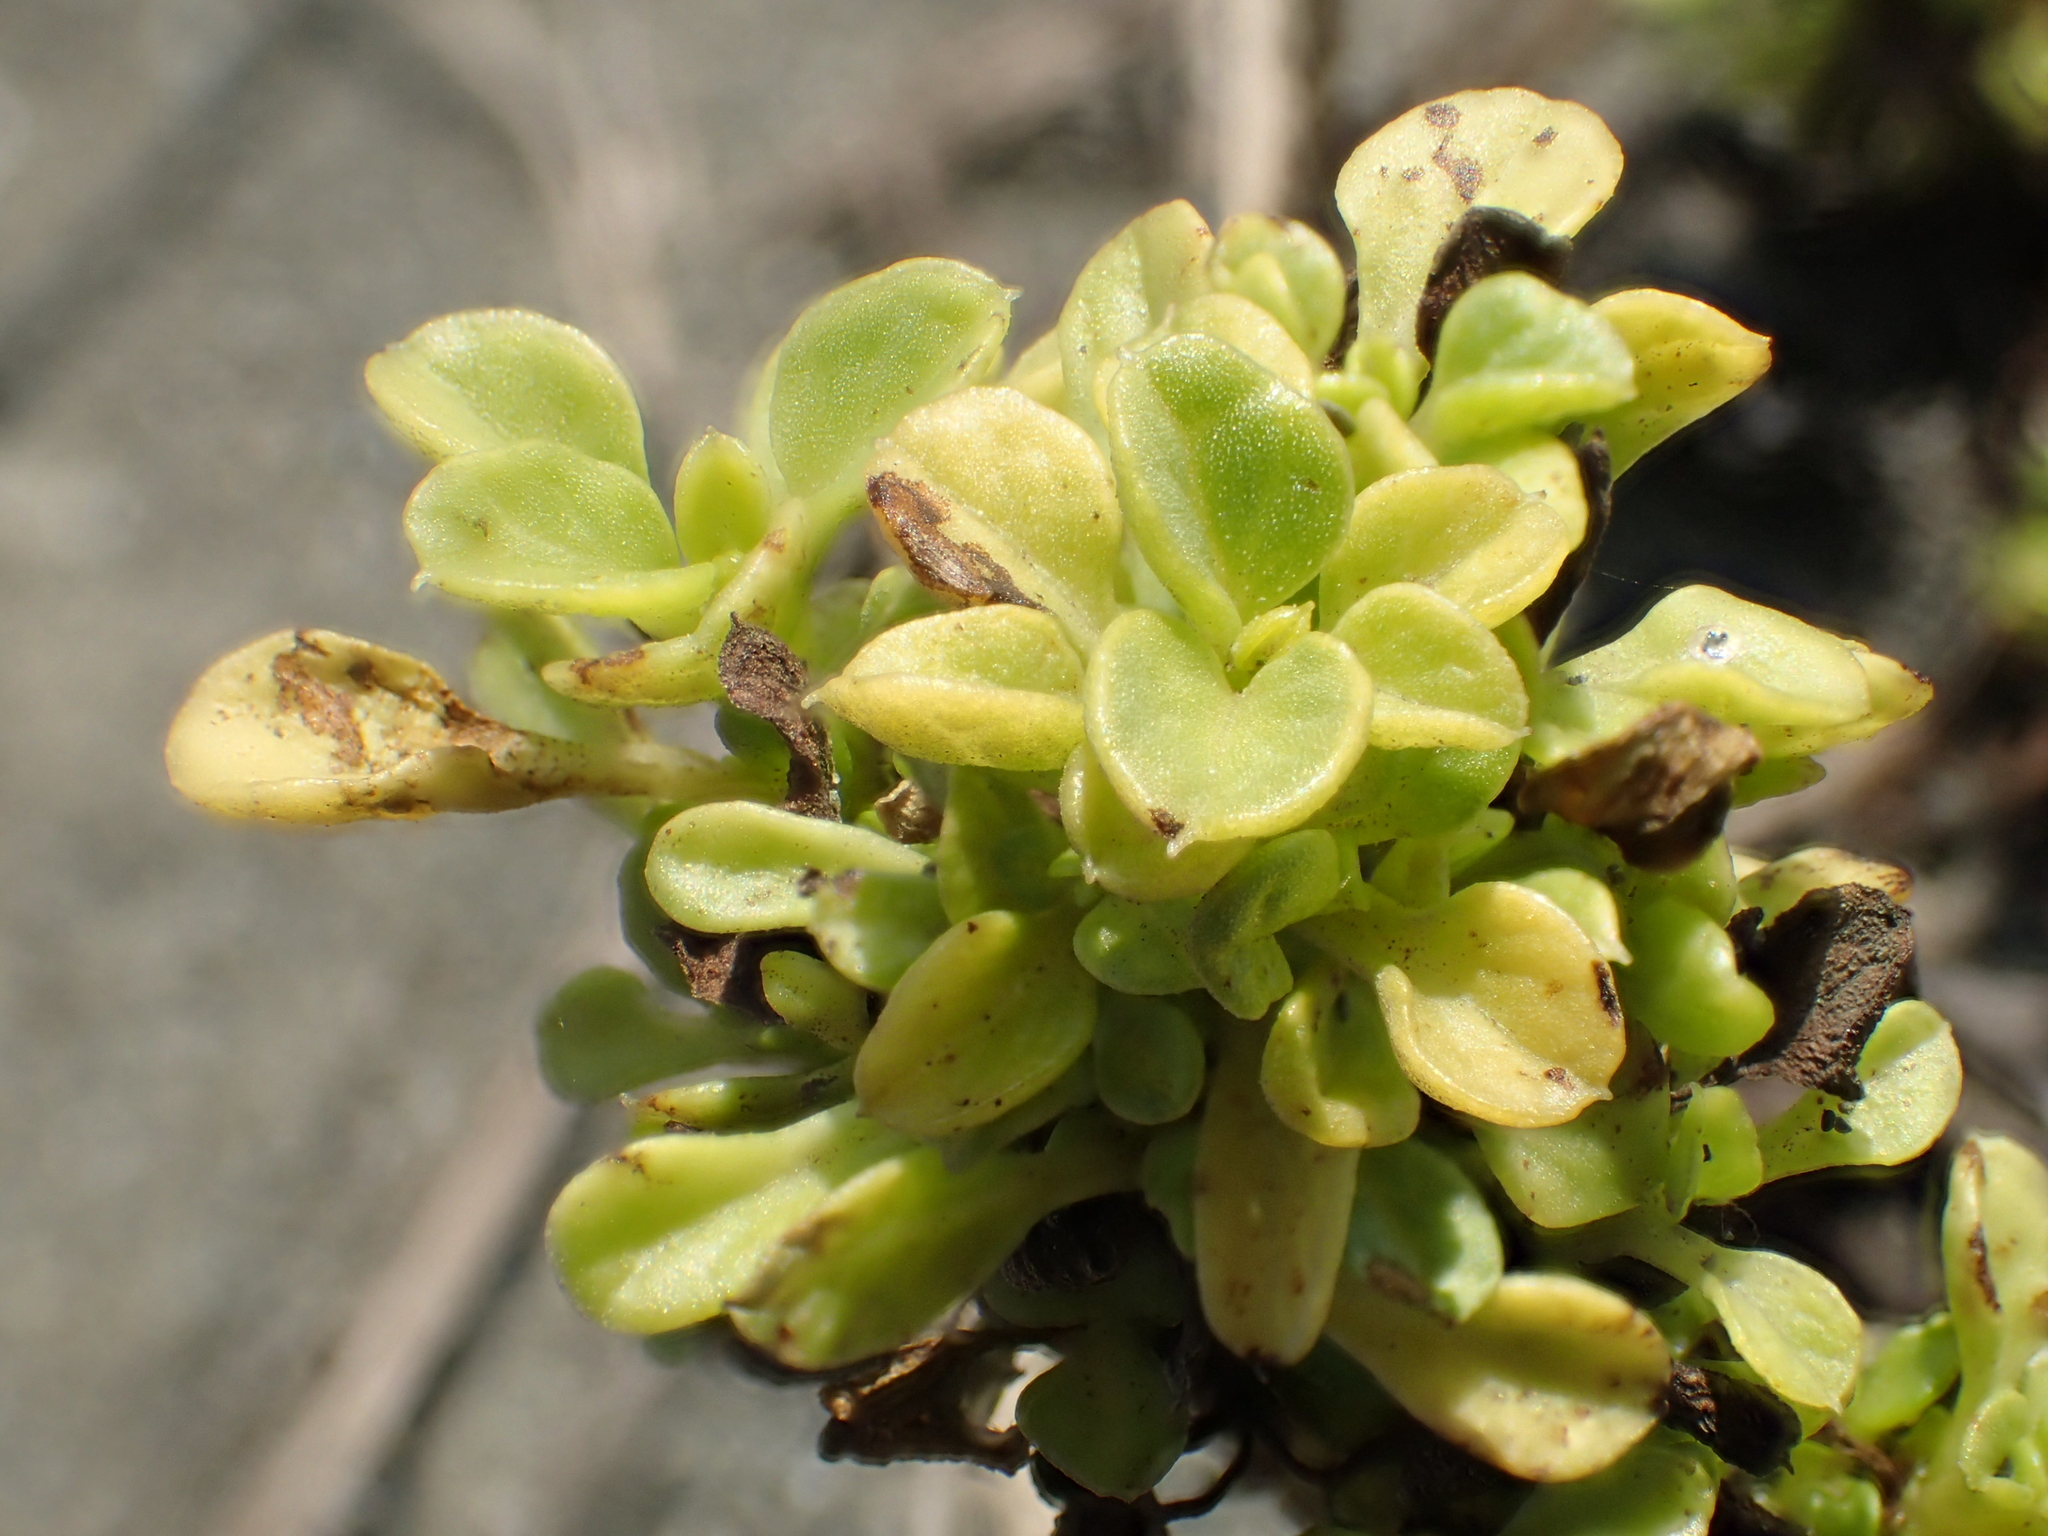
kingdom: Plantae
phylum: Tracheophyta
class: Magnoliopsida
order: Solanales
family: Convolvulaceae
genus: Ipomoea
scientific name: Ipomoea pes-caprae
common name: Beach morning glory
